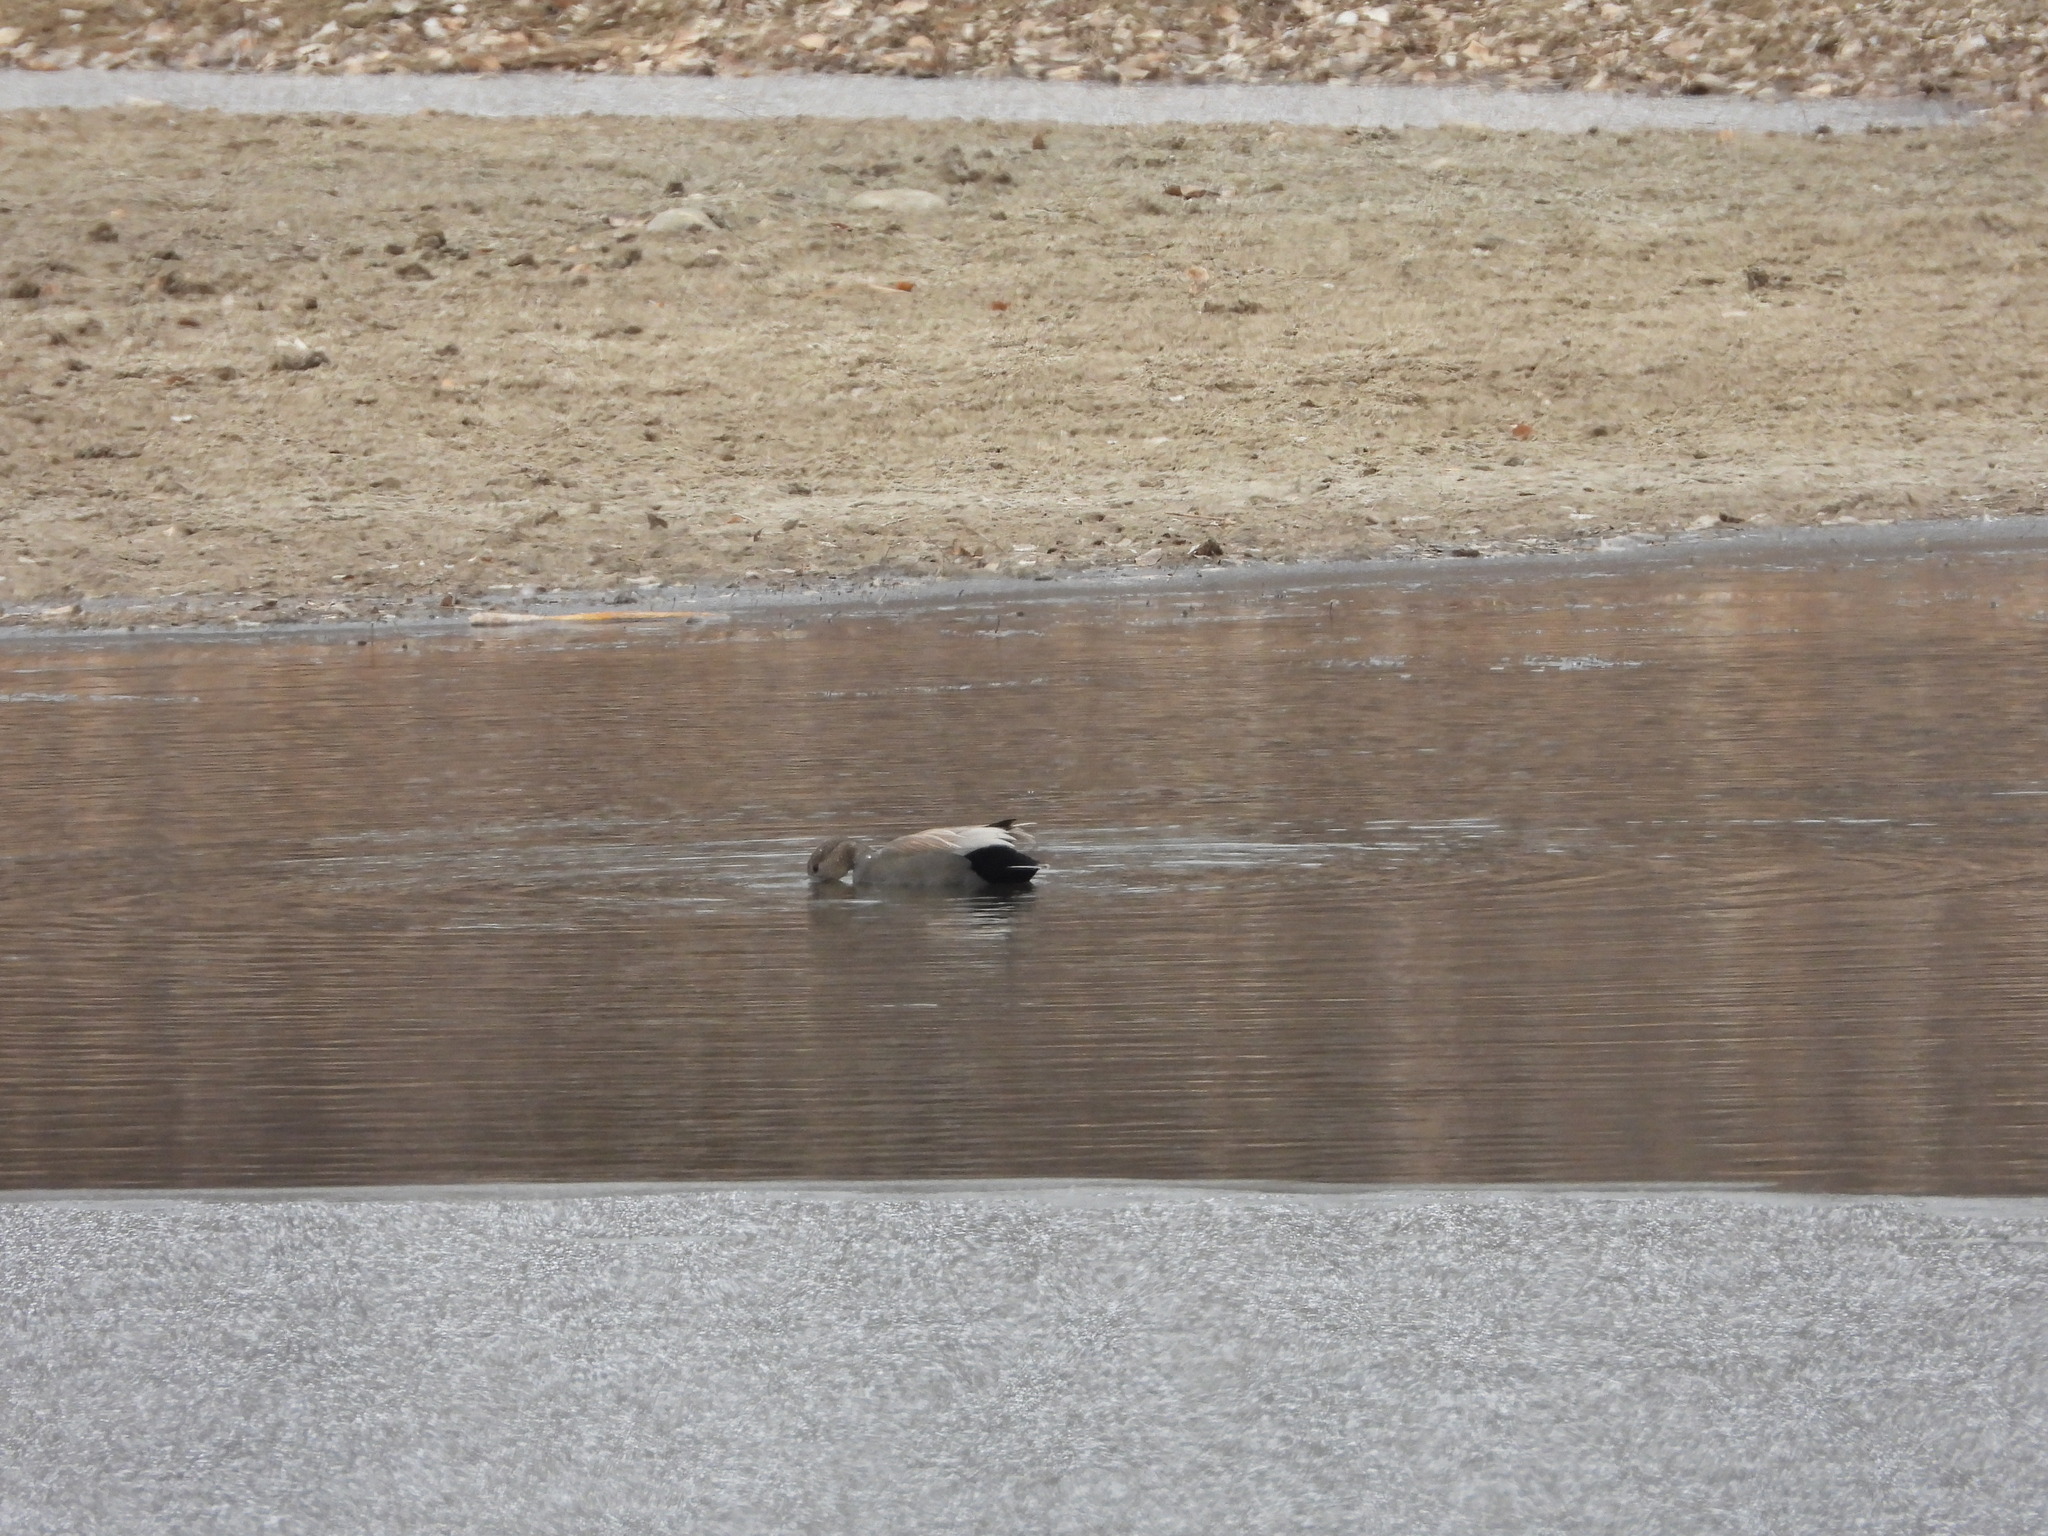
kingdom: Animalia
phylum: Chordata
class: Aves
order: Anseriformes
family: Anatidae
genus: Mareca
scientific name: Mareca strepera
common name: Gadwall
